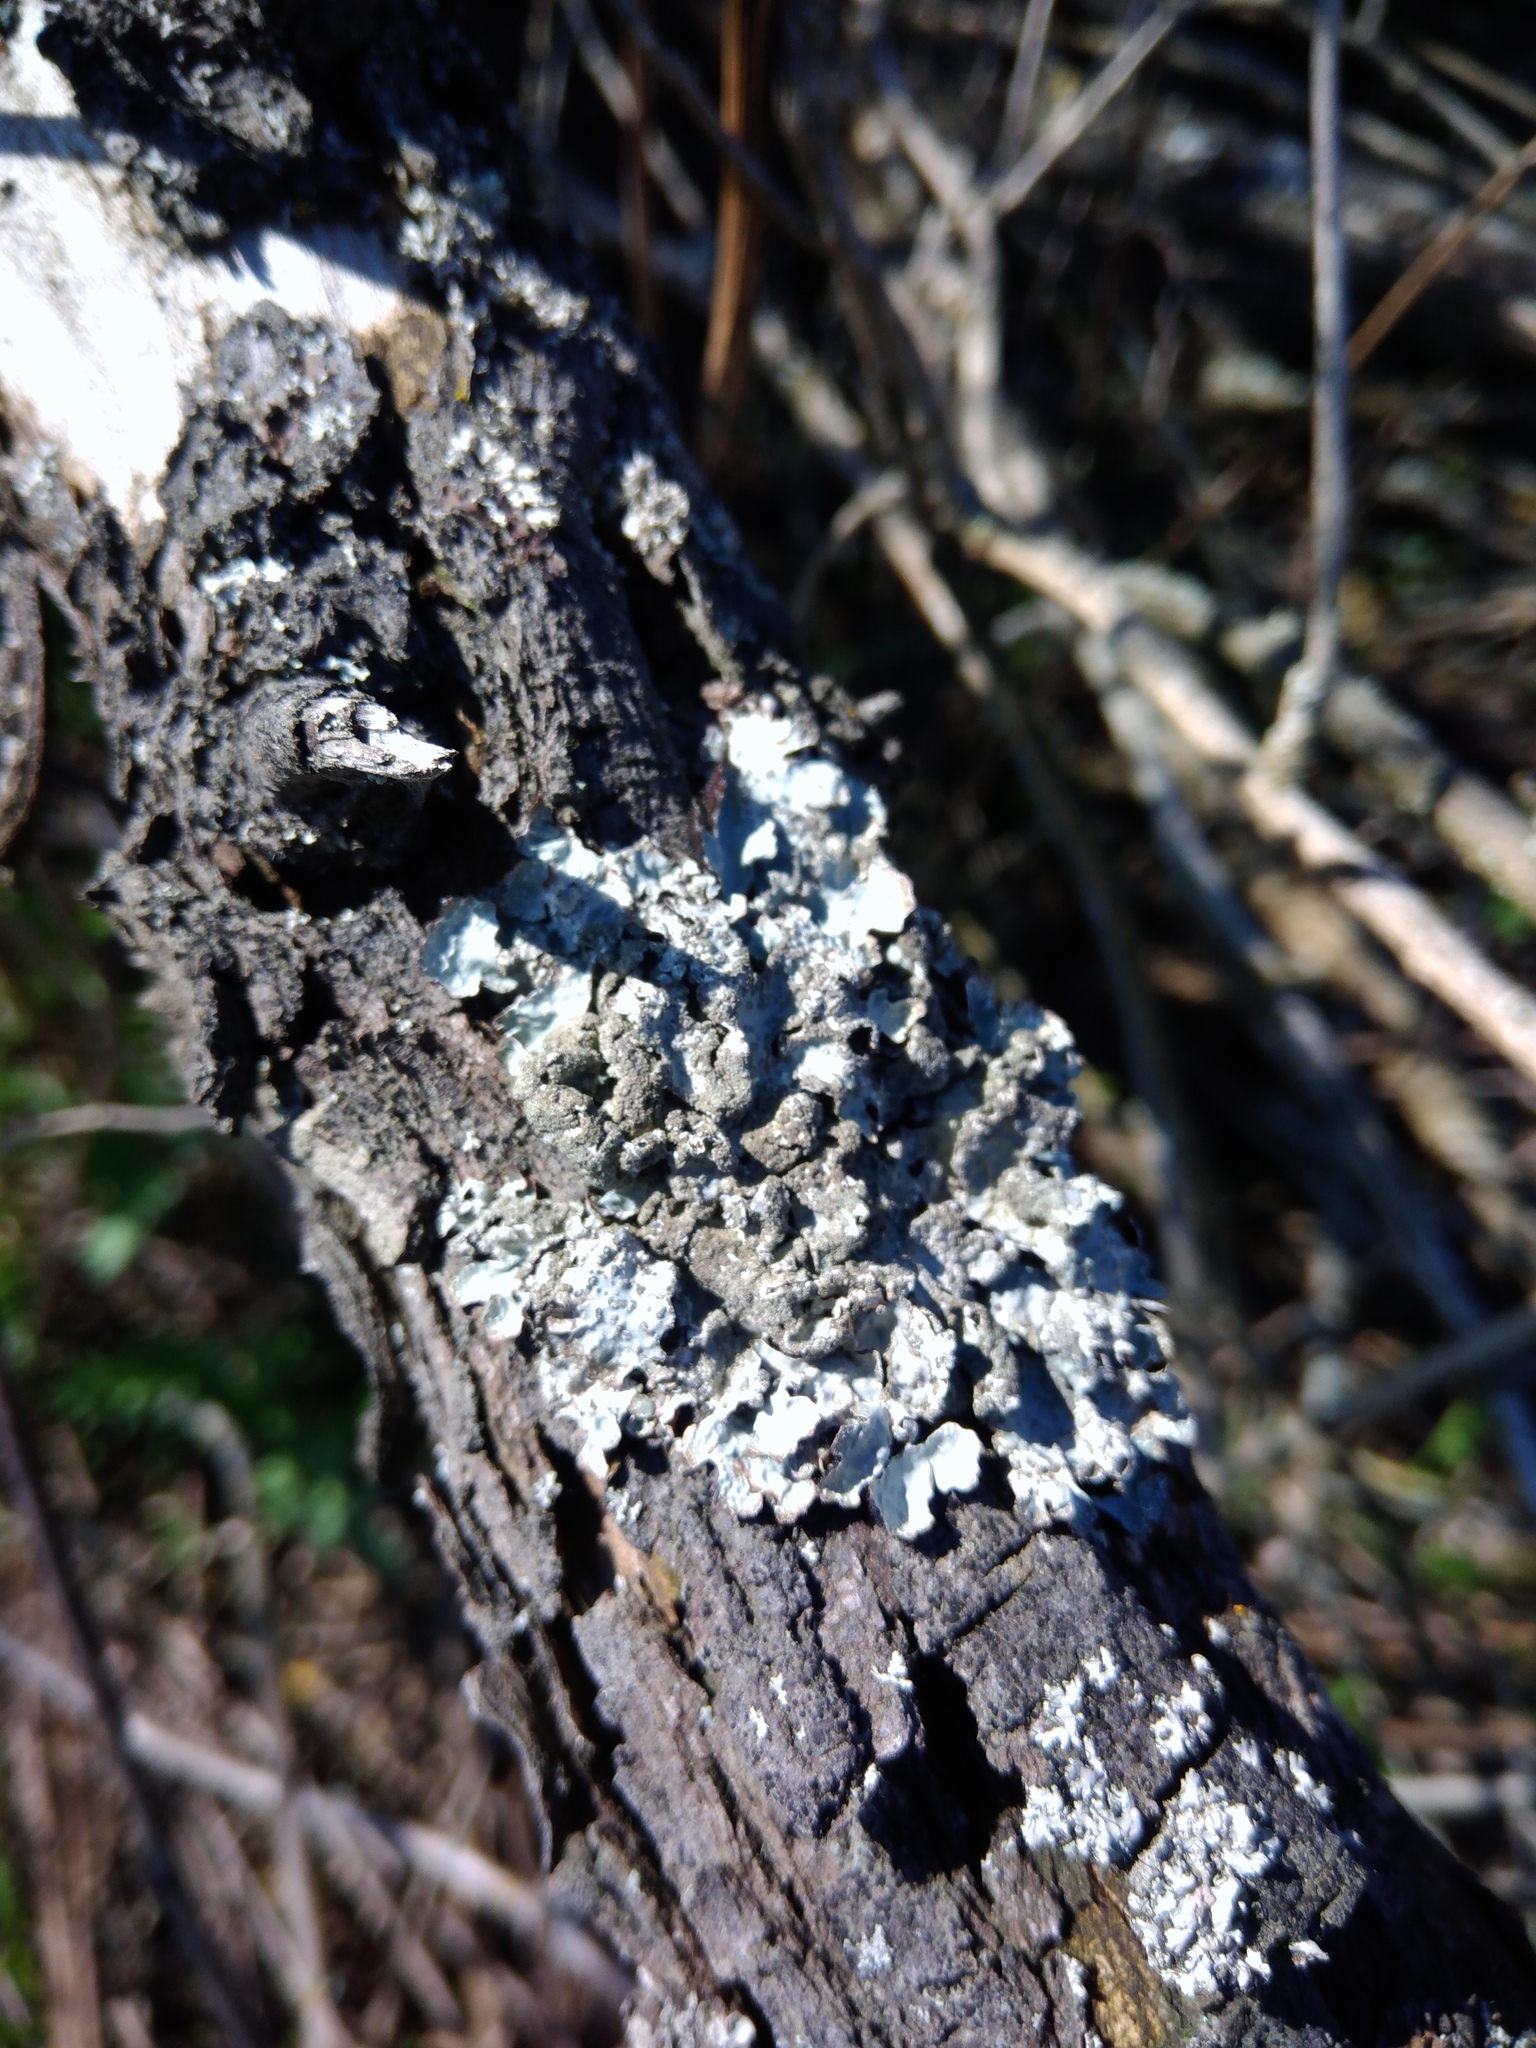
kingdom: Fungi
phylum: Ascomycota
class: Lecanoromycetes
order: Lecanorales
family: Parmeliaceae
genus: Parmelia
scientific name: Parmelia sulcata
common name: Netted shield lichen
